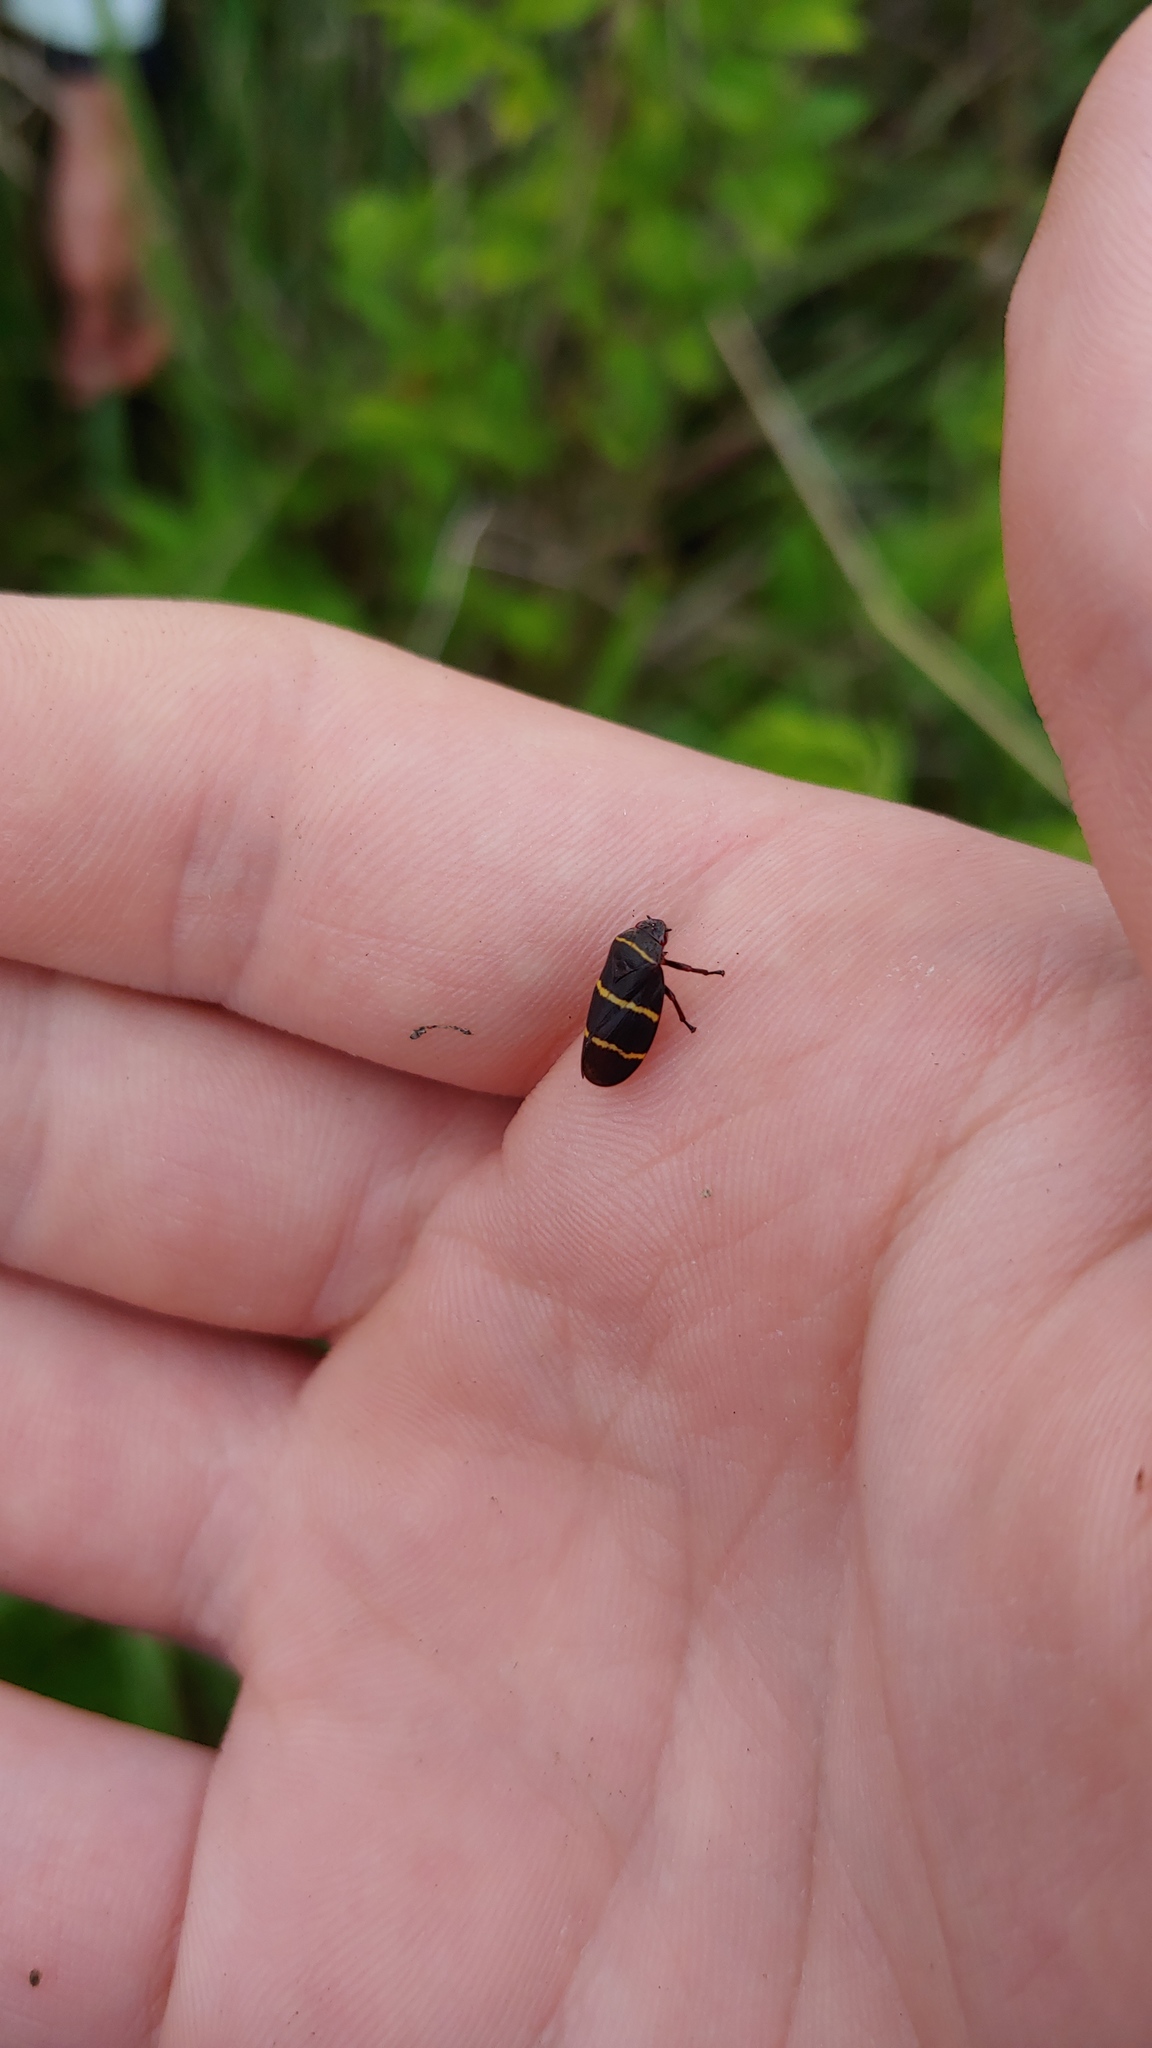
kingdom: Animalia
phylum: Arthropoda
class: Insecta
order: Hemiptera
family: Cercopidae
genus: Prosapia
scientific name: Prosapia bicincta
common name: Twolined spittlebug
